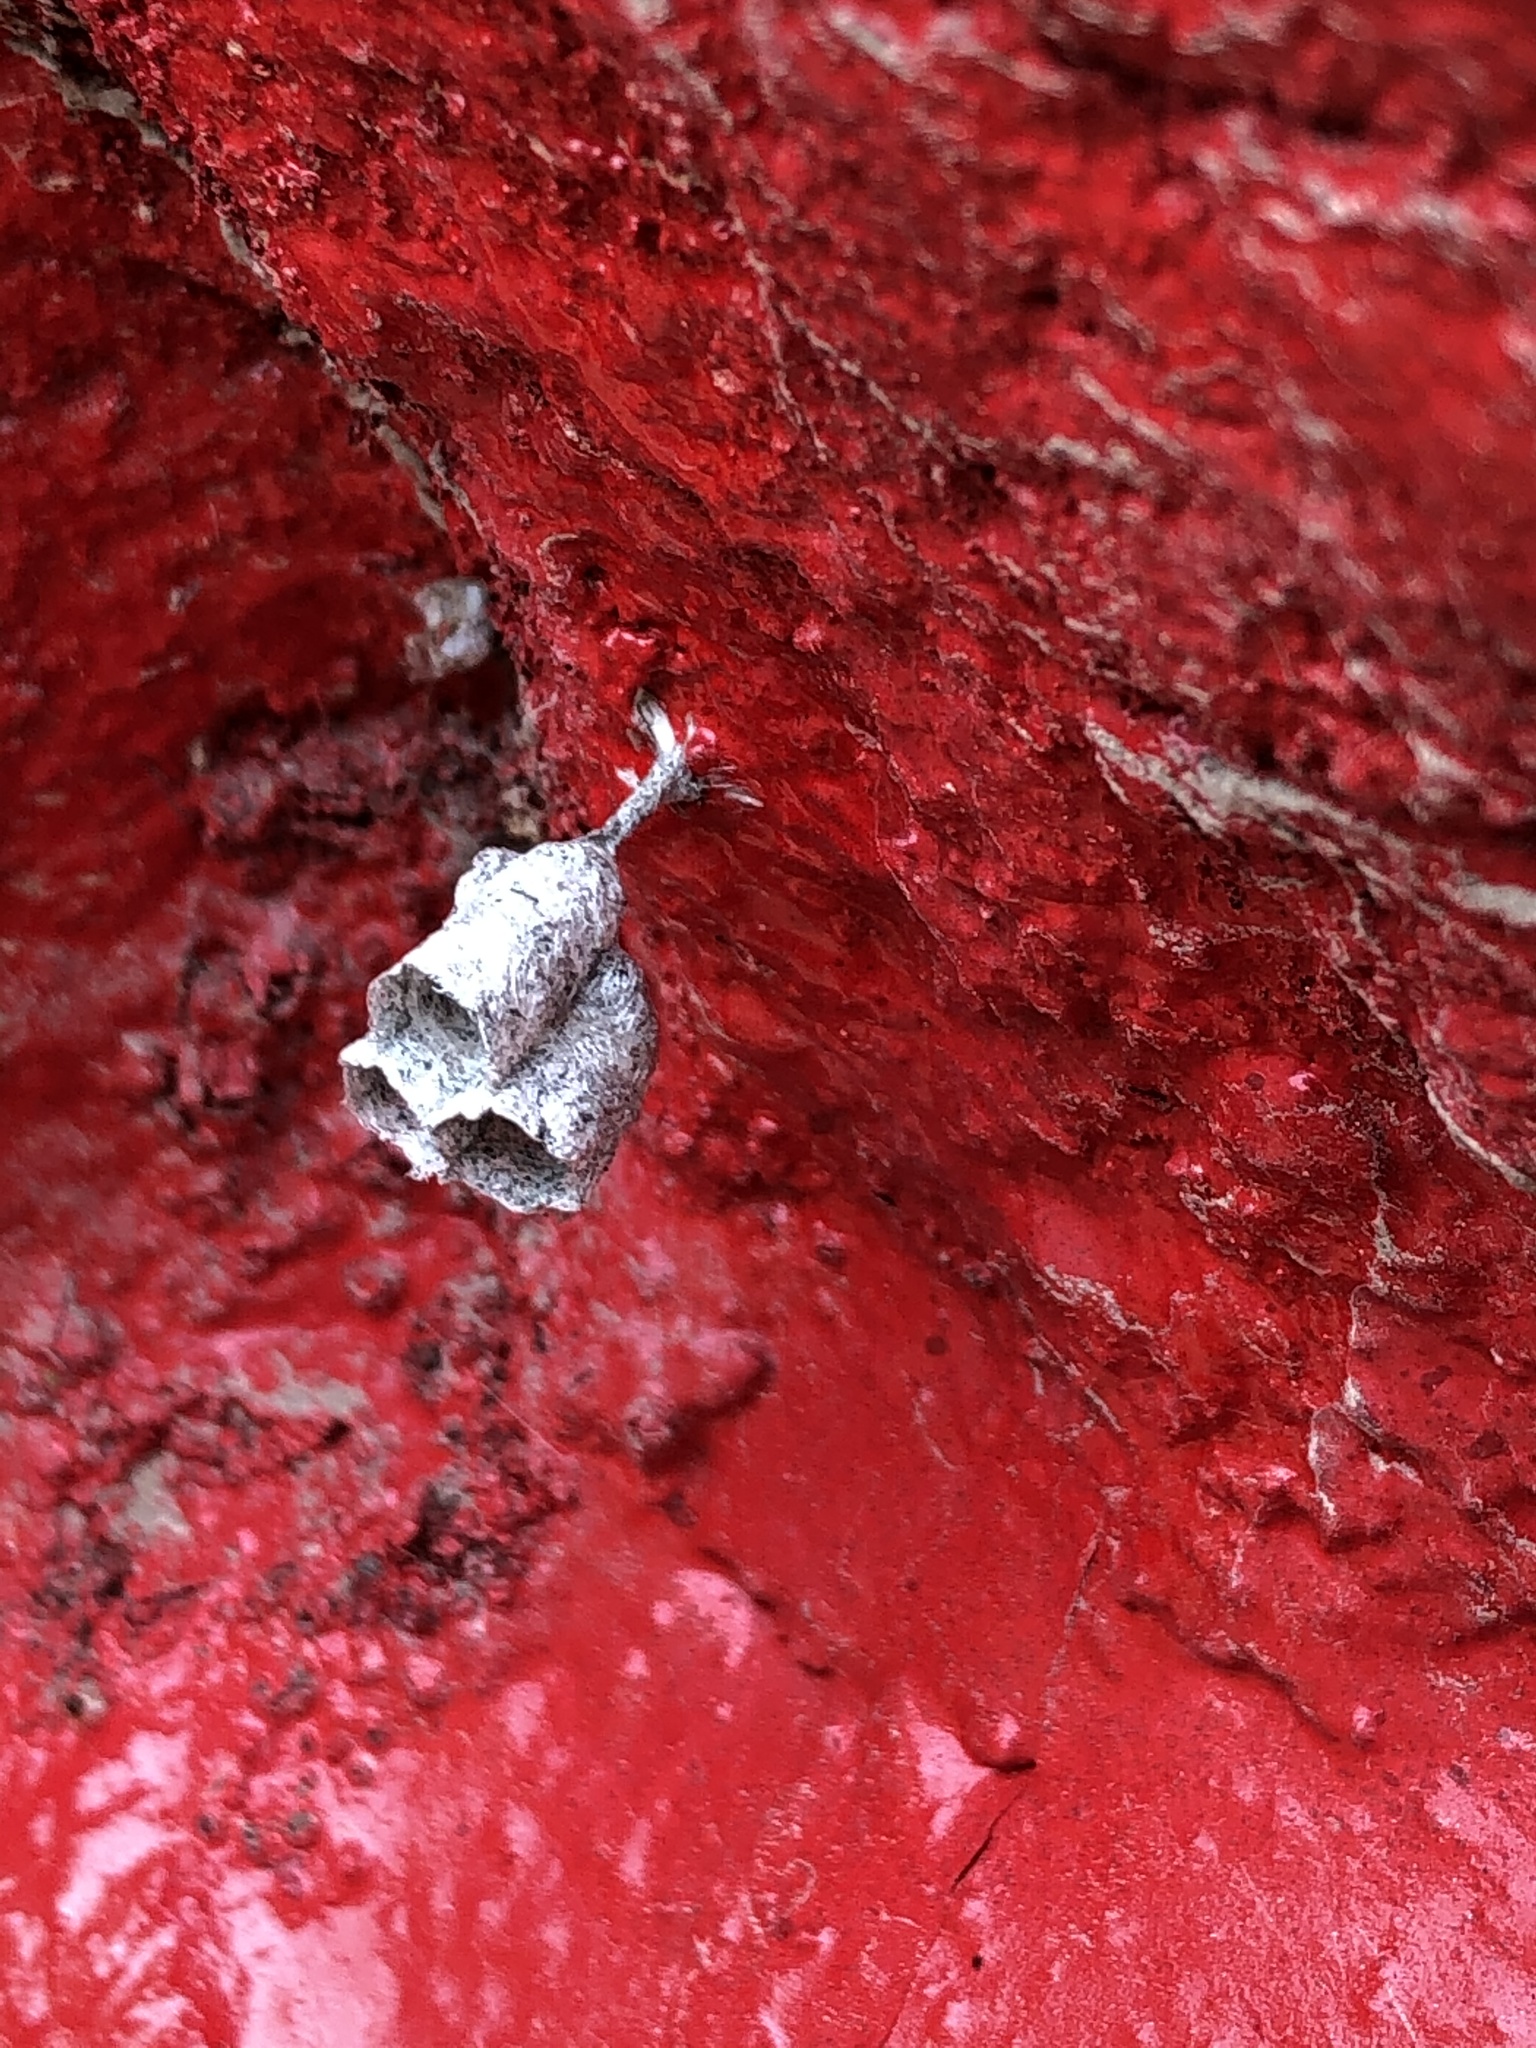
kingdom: Animalia
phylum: Arthropoda
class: Insecta
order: Hymenoptera
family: Vespidae
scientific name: Vespidae
